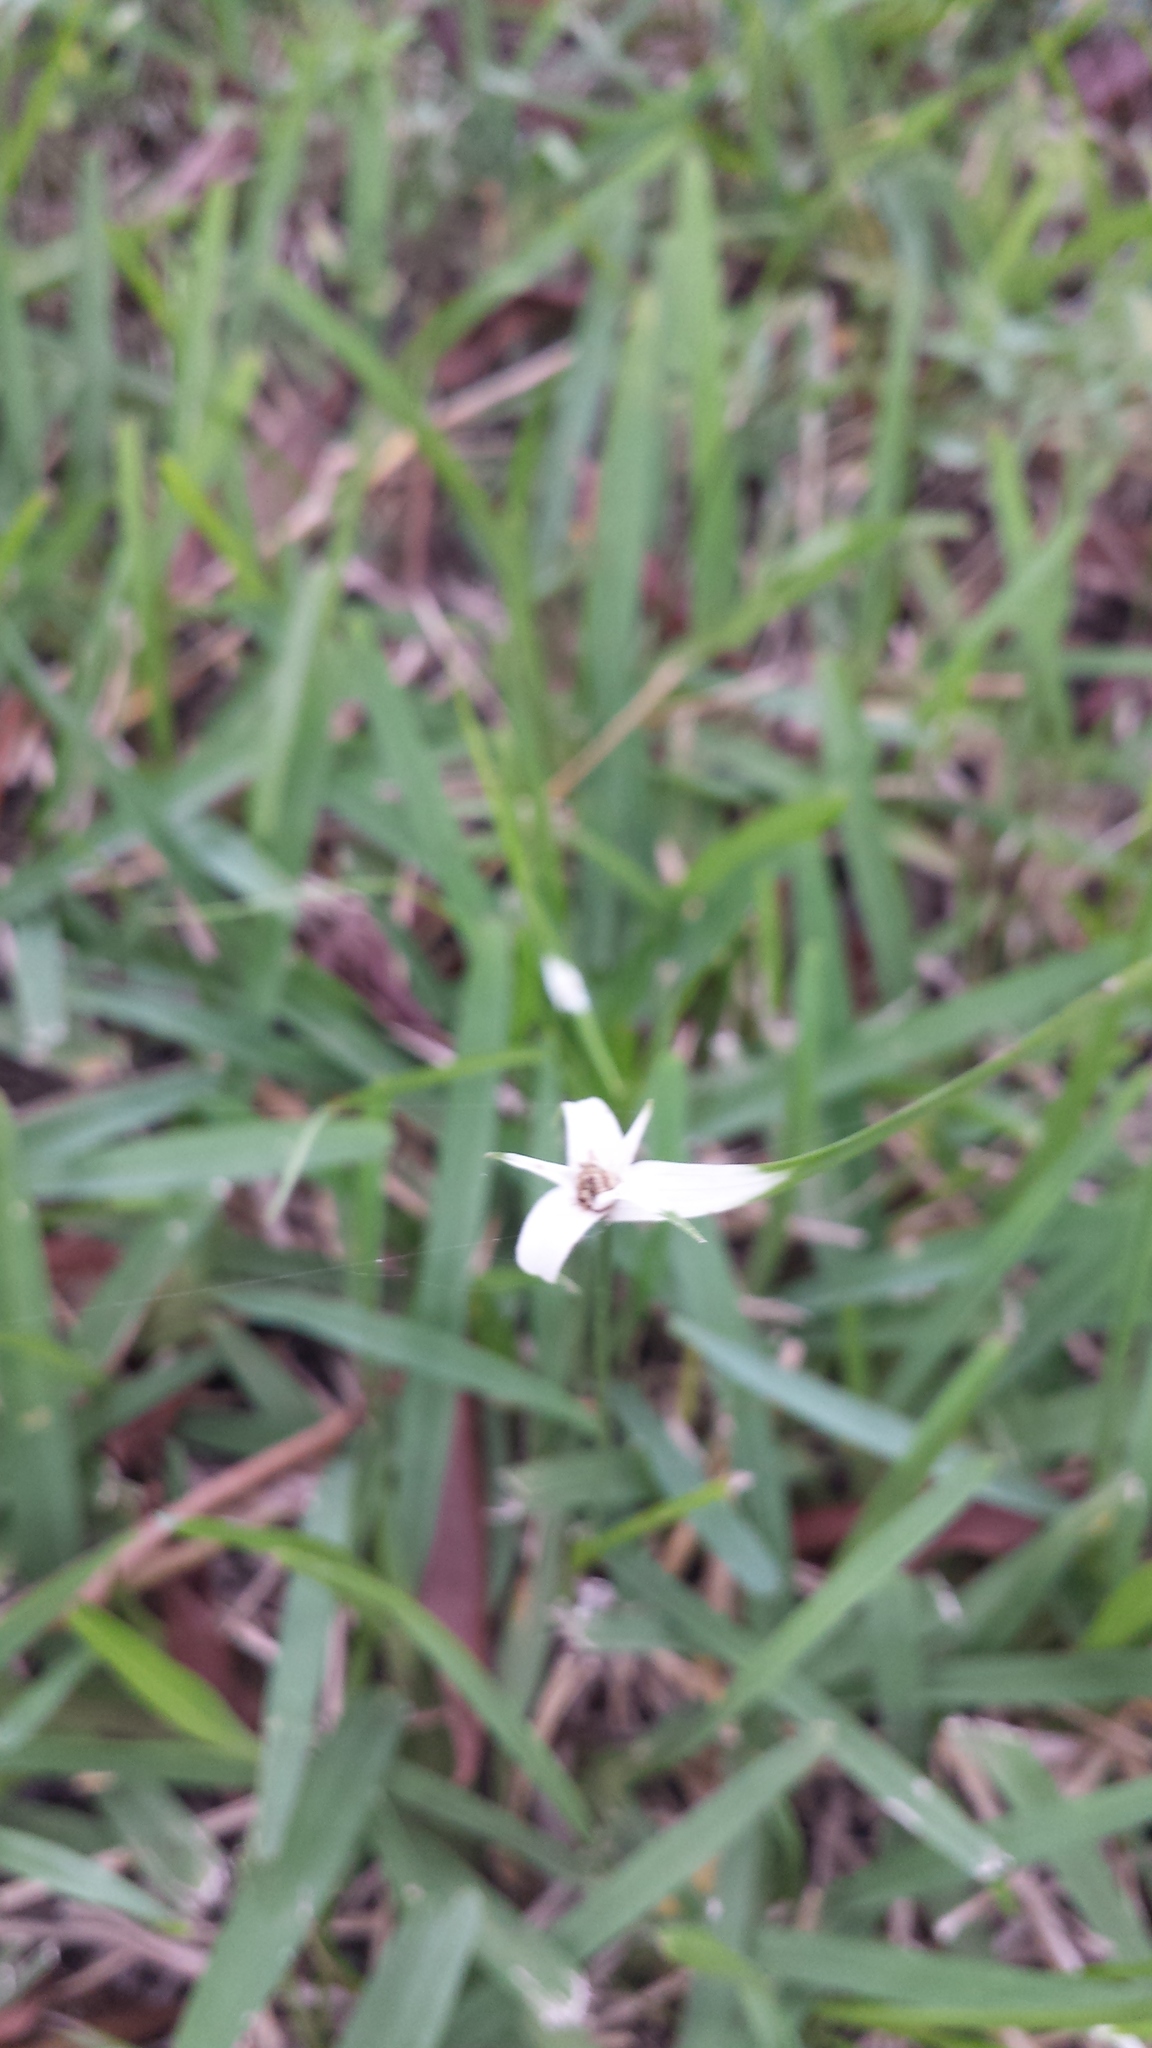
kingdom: Plantae
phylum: Tracheophyta
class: Liliopsida
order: Poales
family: Cyperaceae
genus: Rhynchospora
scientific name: Rhynchospora colorata
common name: Star sedge
